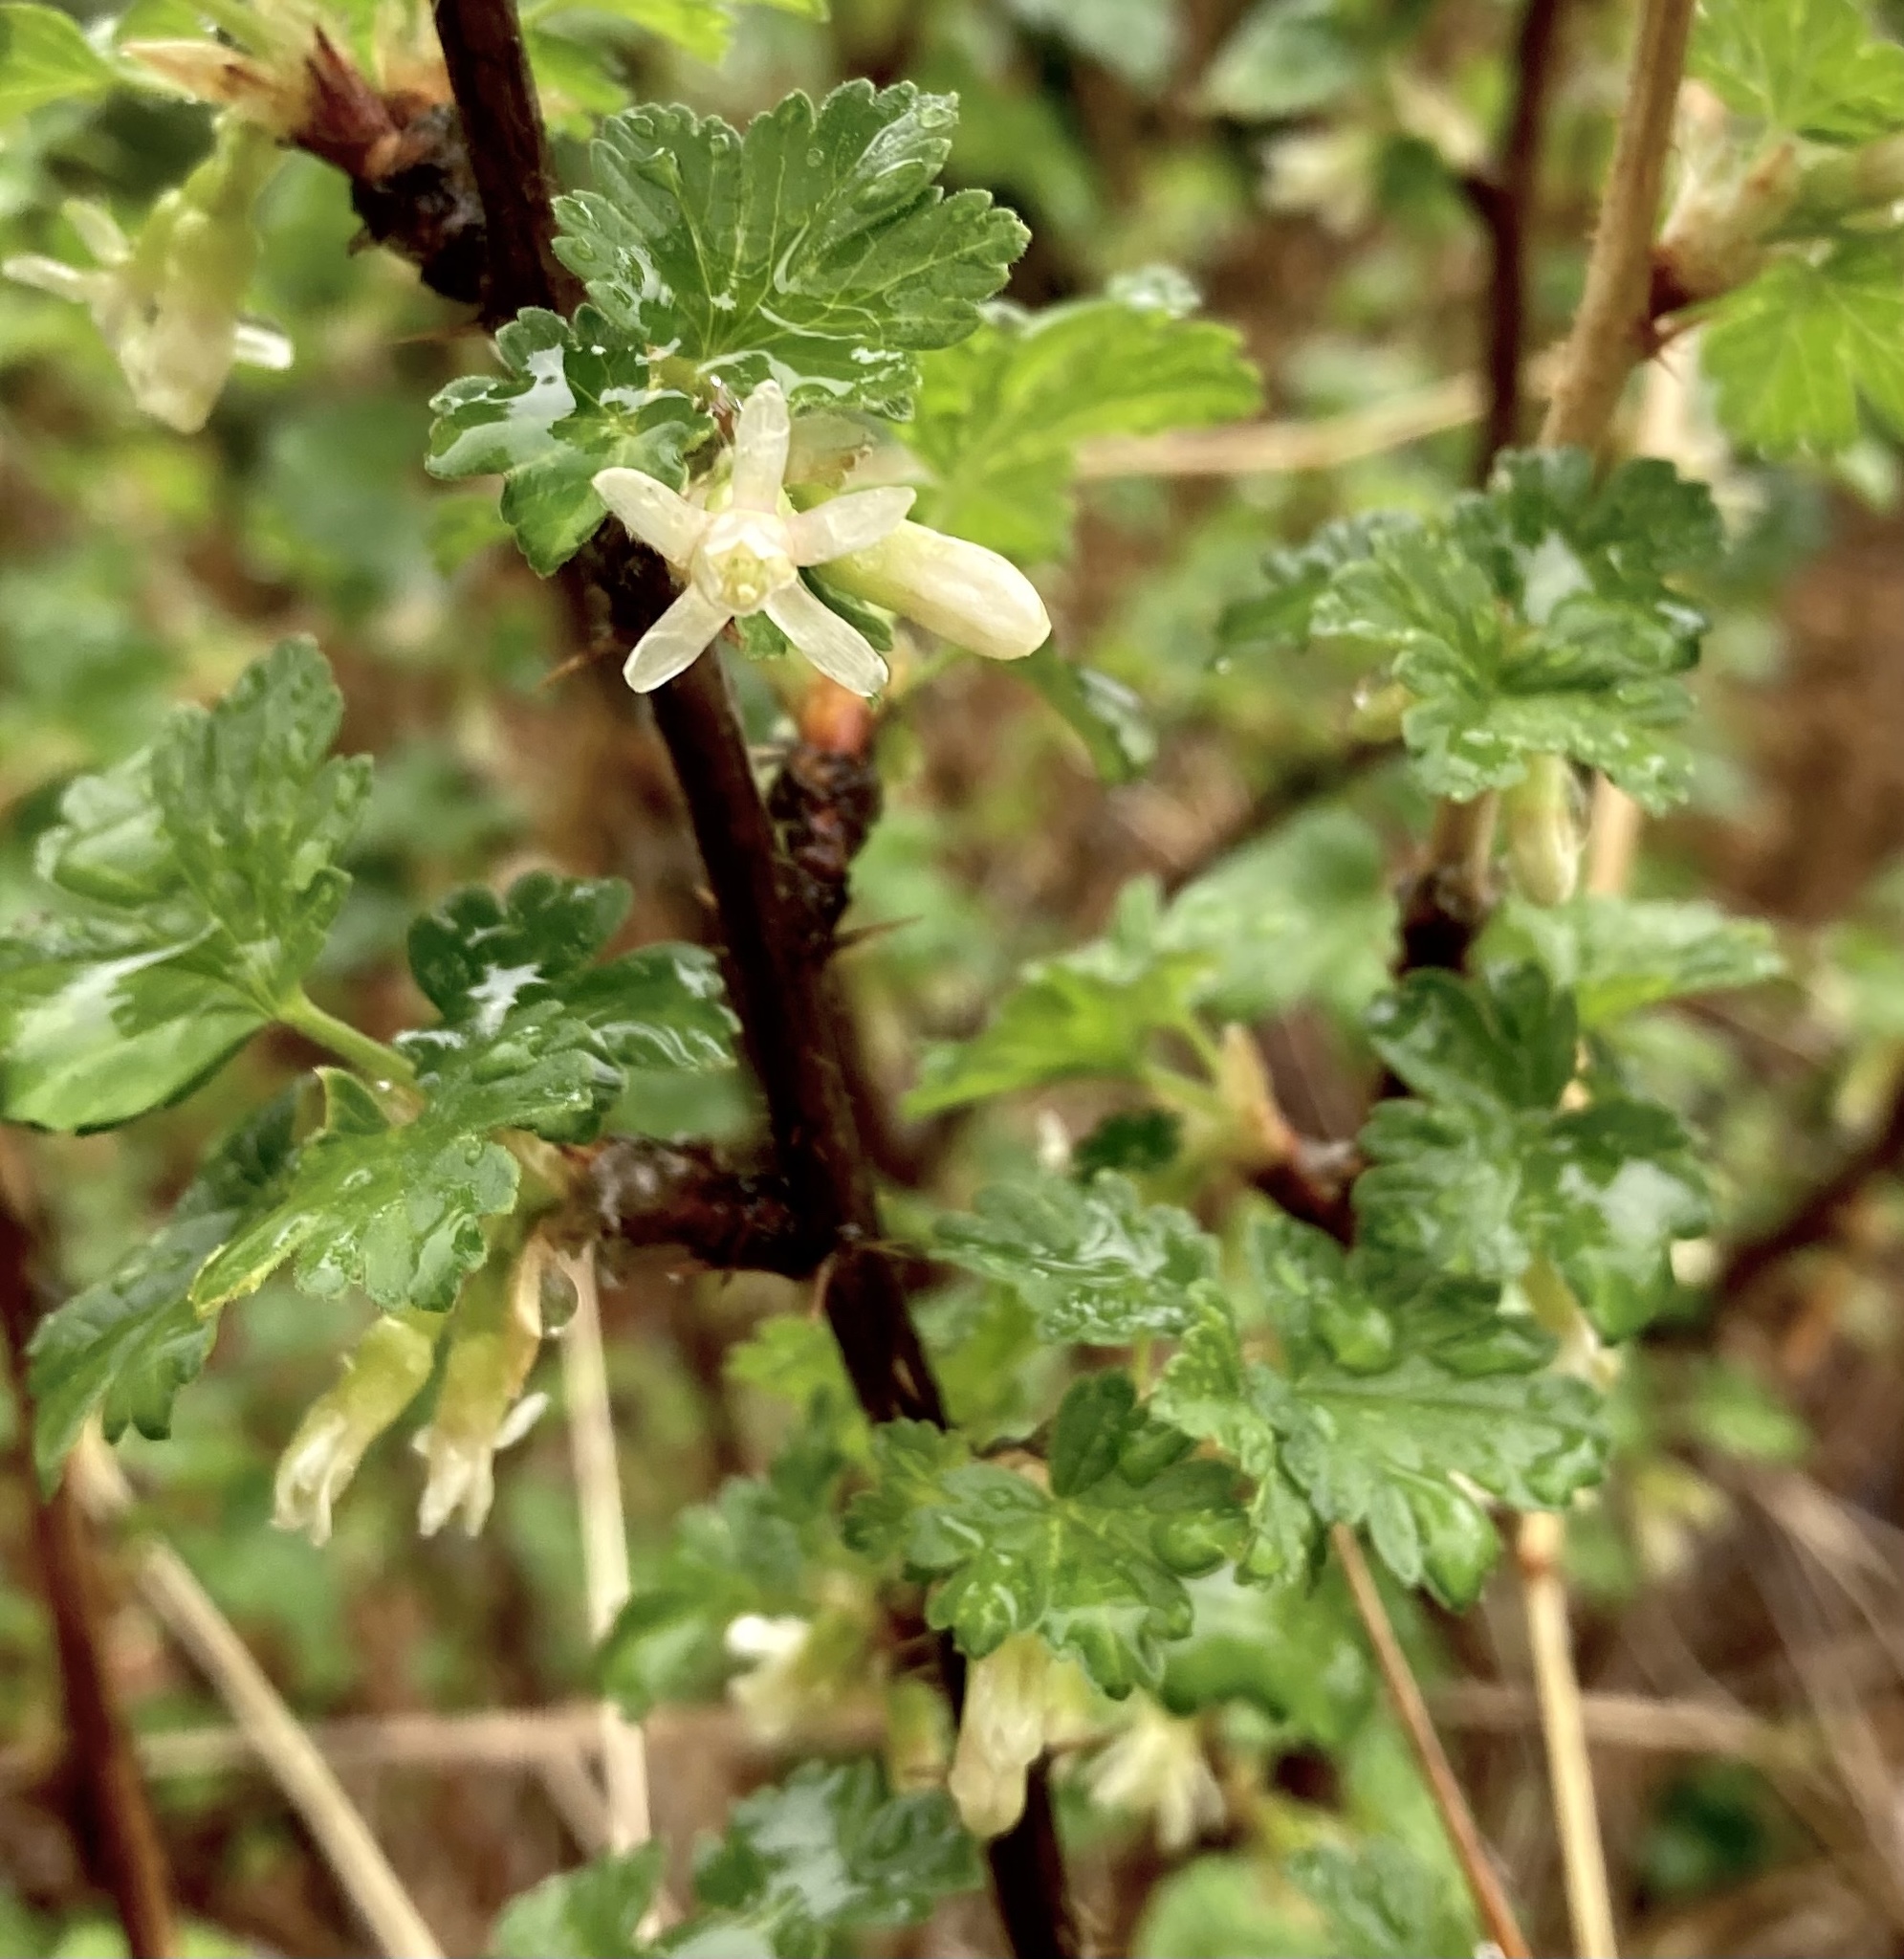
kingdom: Plantae
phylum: Tracheophyta
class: Magnoliopsida
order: Saxifragales
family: Grossulariaceae
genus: Ribes
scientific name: Ribes oxyacanthoides
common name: Northern gooseberry
